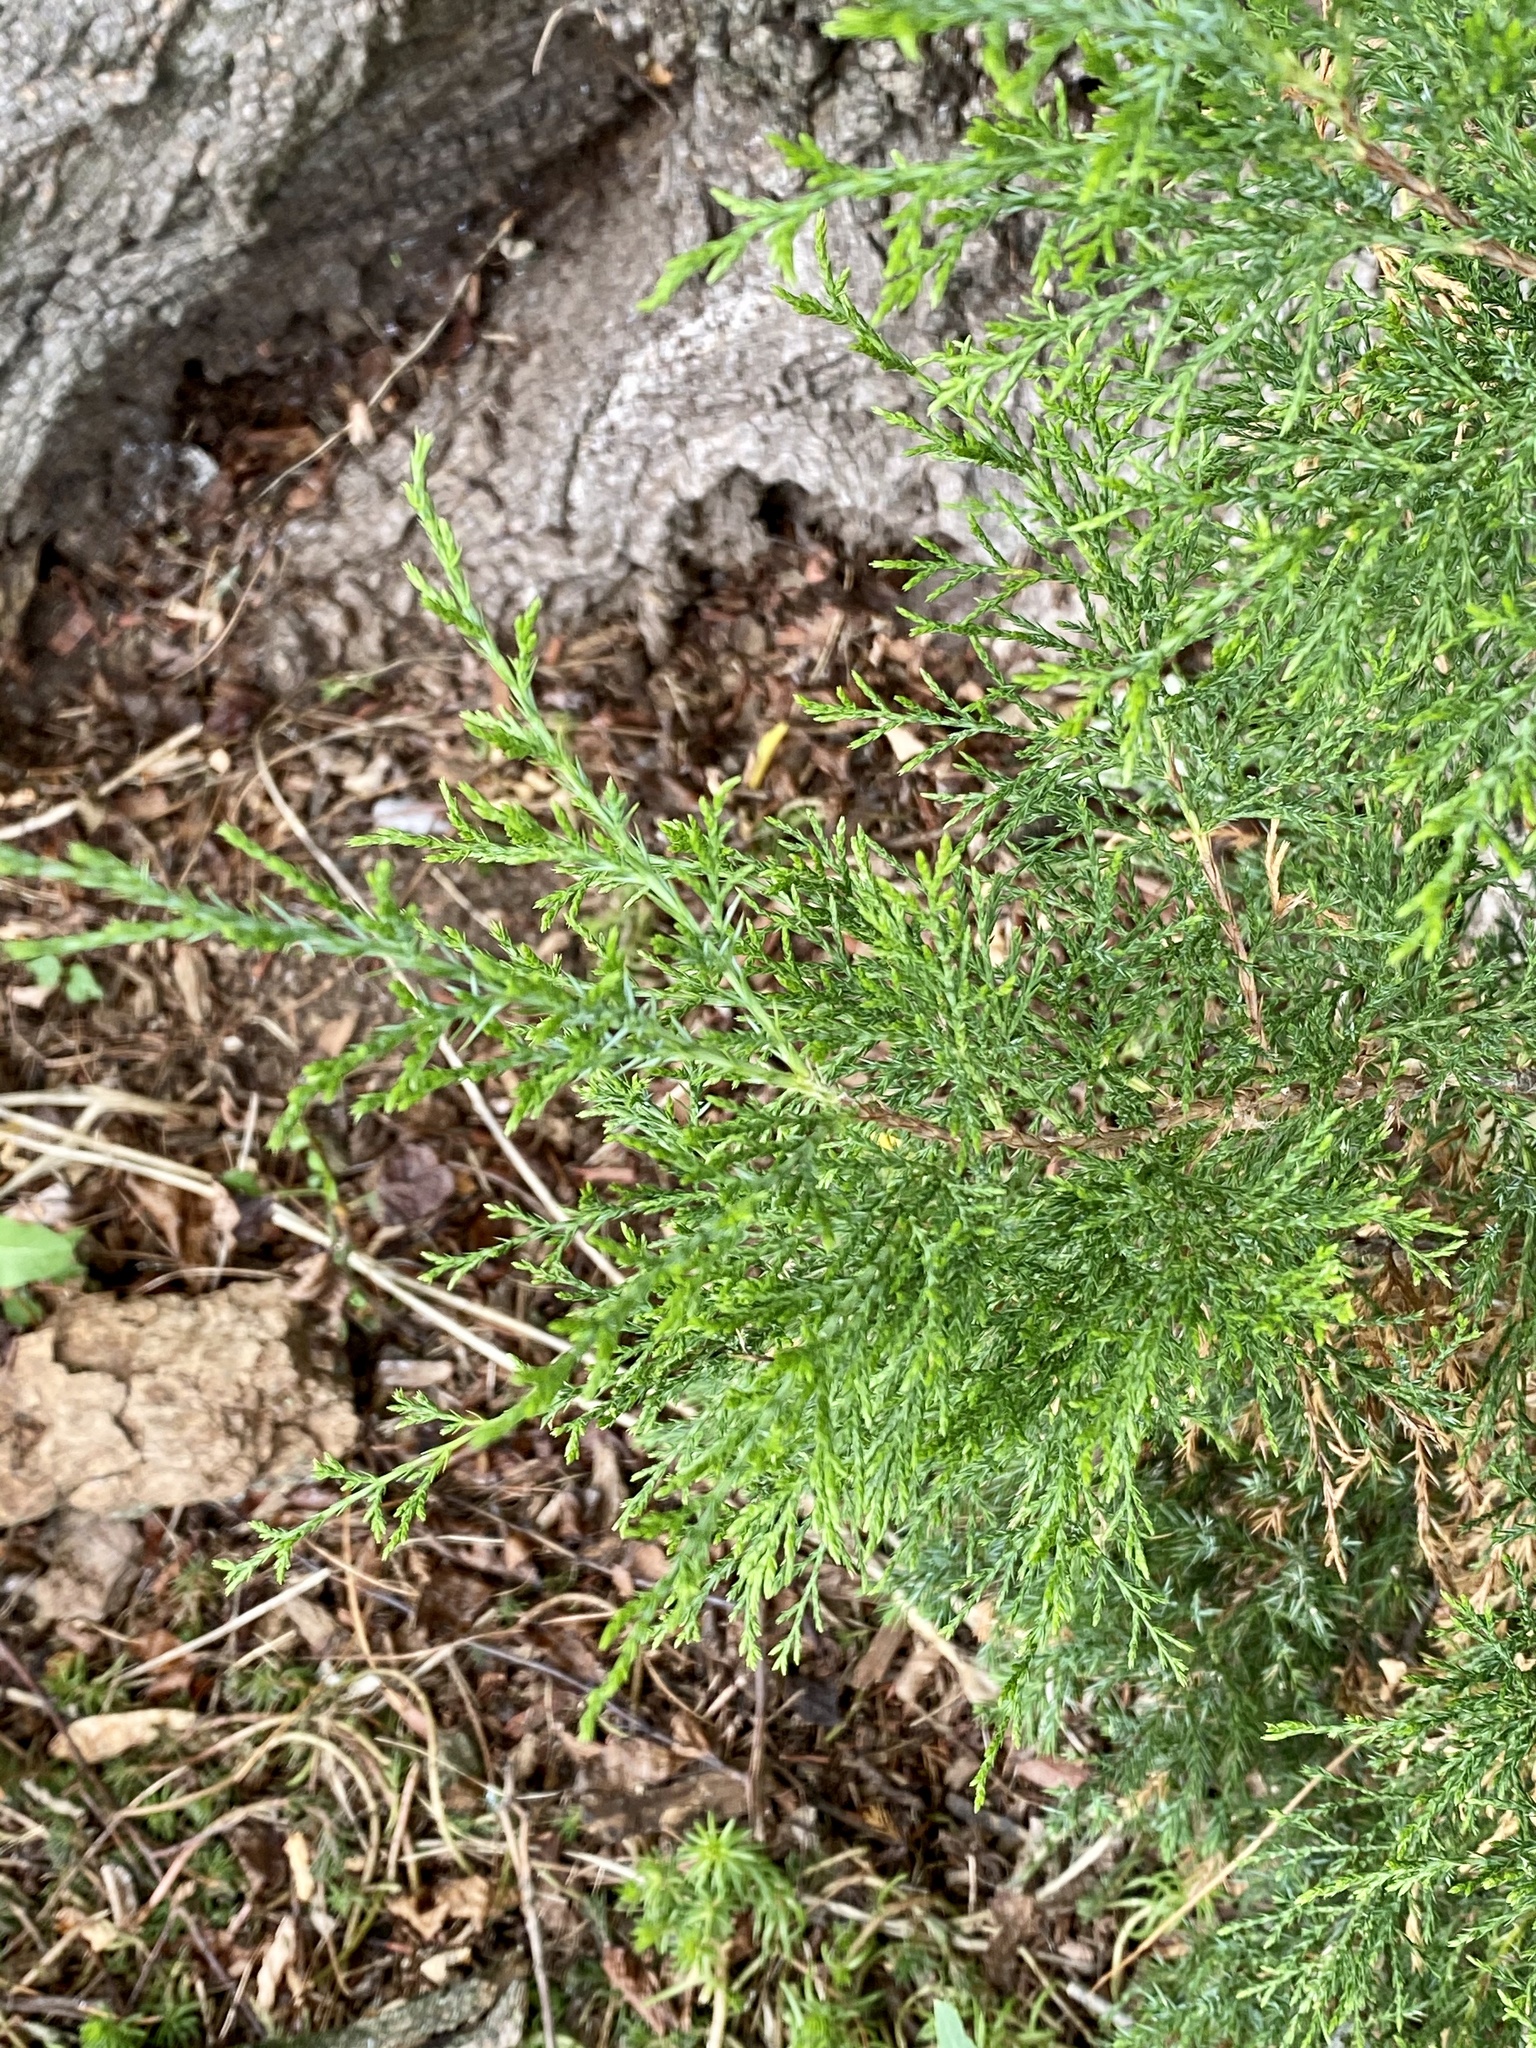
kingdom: Plantae
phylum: Tracheophyta
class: Pinopsida
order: Pinales
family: Cupressaceae
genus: Juniperus
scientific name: Juniperus virginiana
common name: Red juniper
